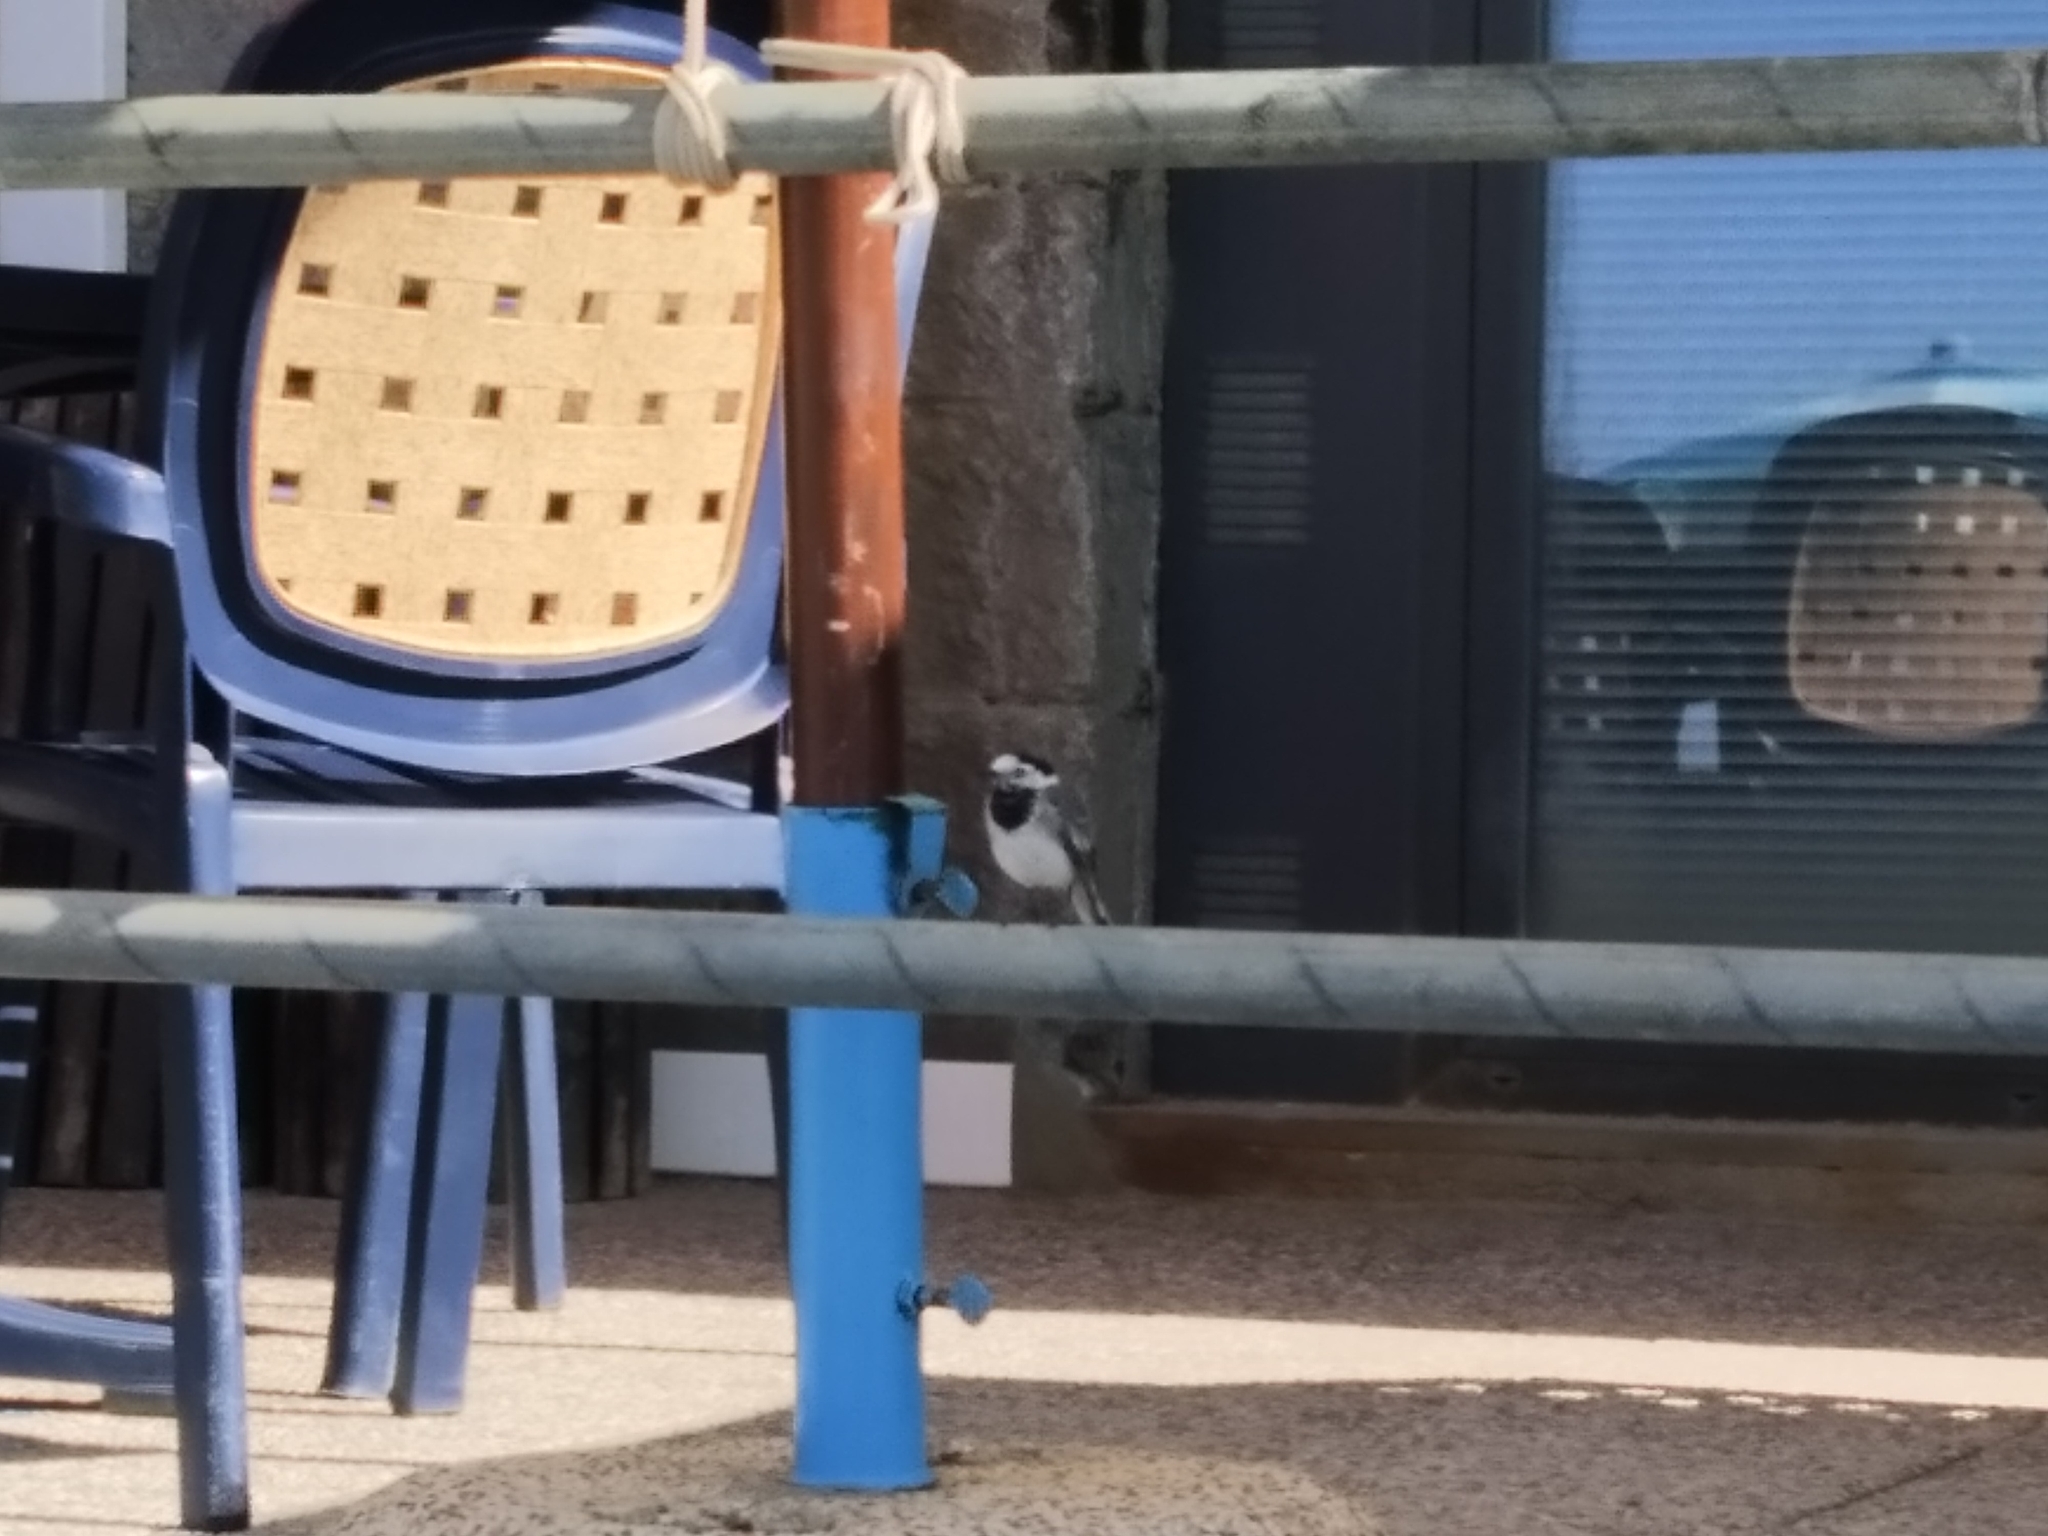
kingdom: Animalia
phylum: Chordata
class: Aves
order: Passeriformes
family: Motacillidae
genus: Motacilla
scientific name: Motacilla alba
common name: White wagtail
